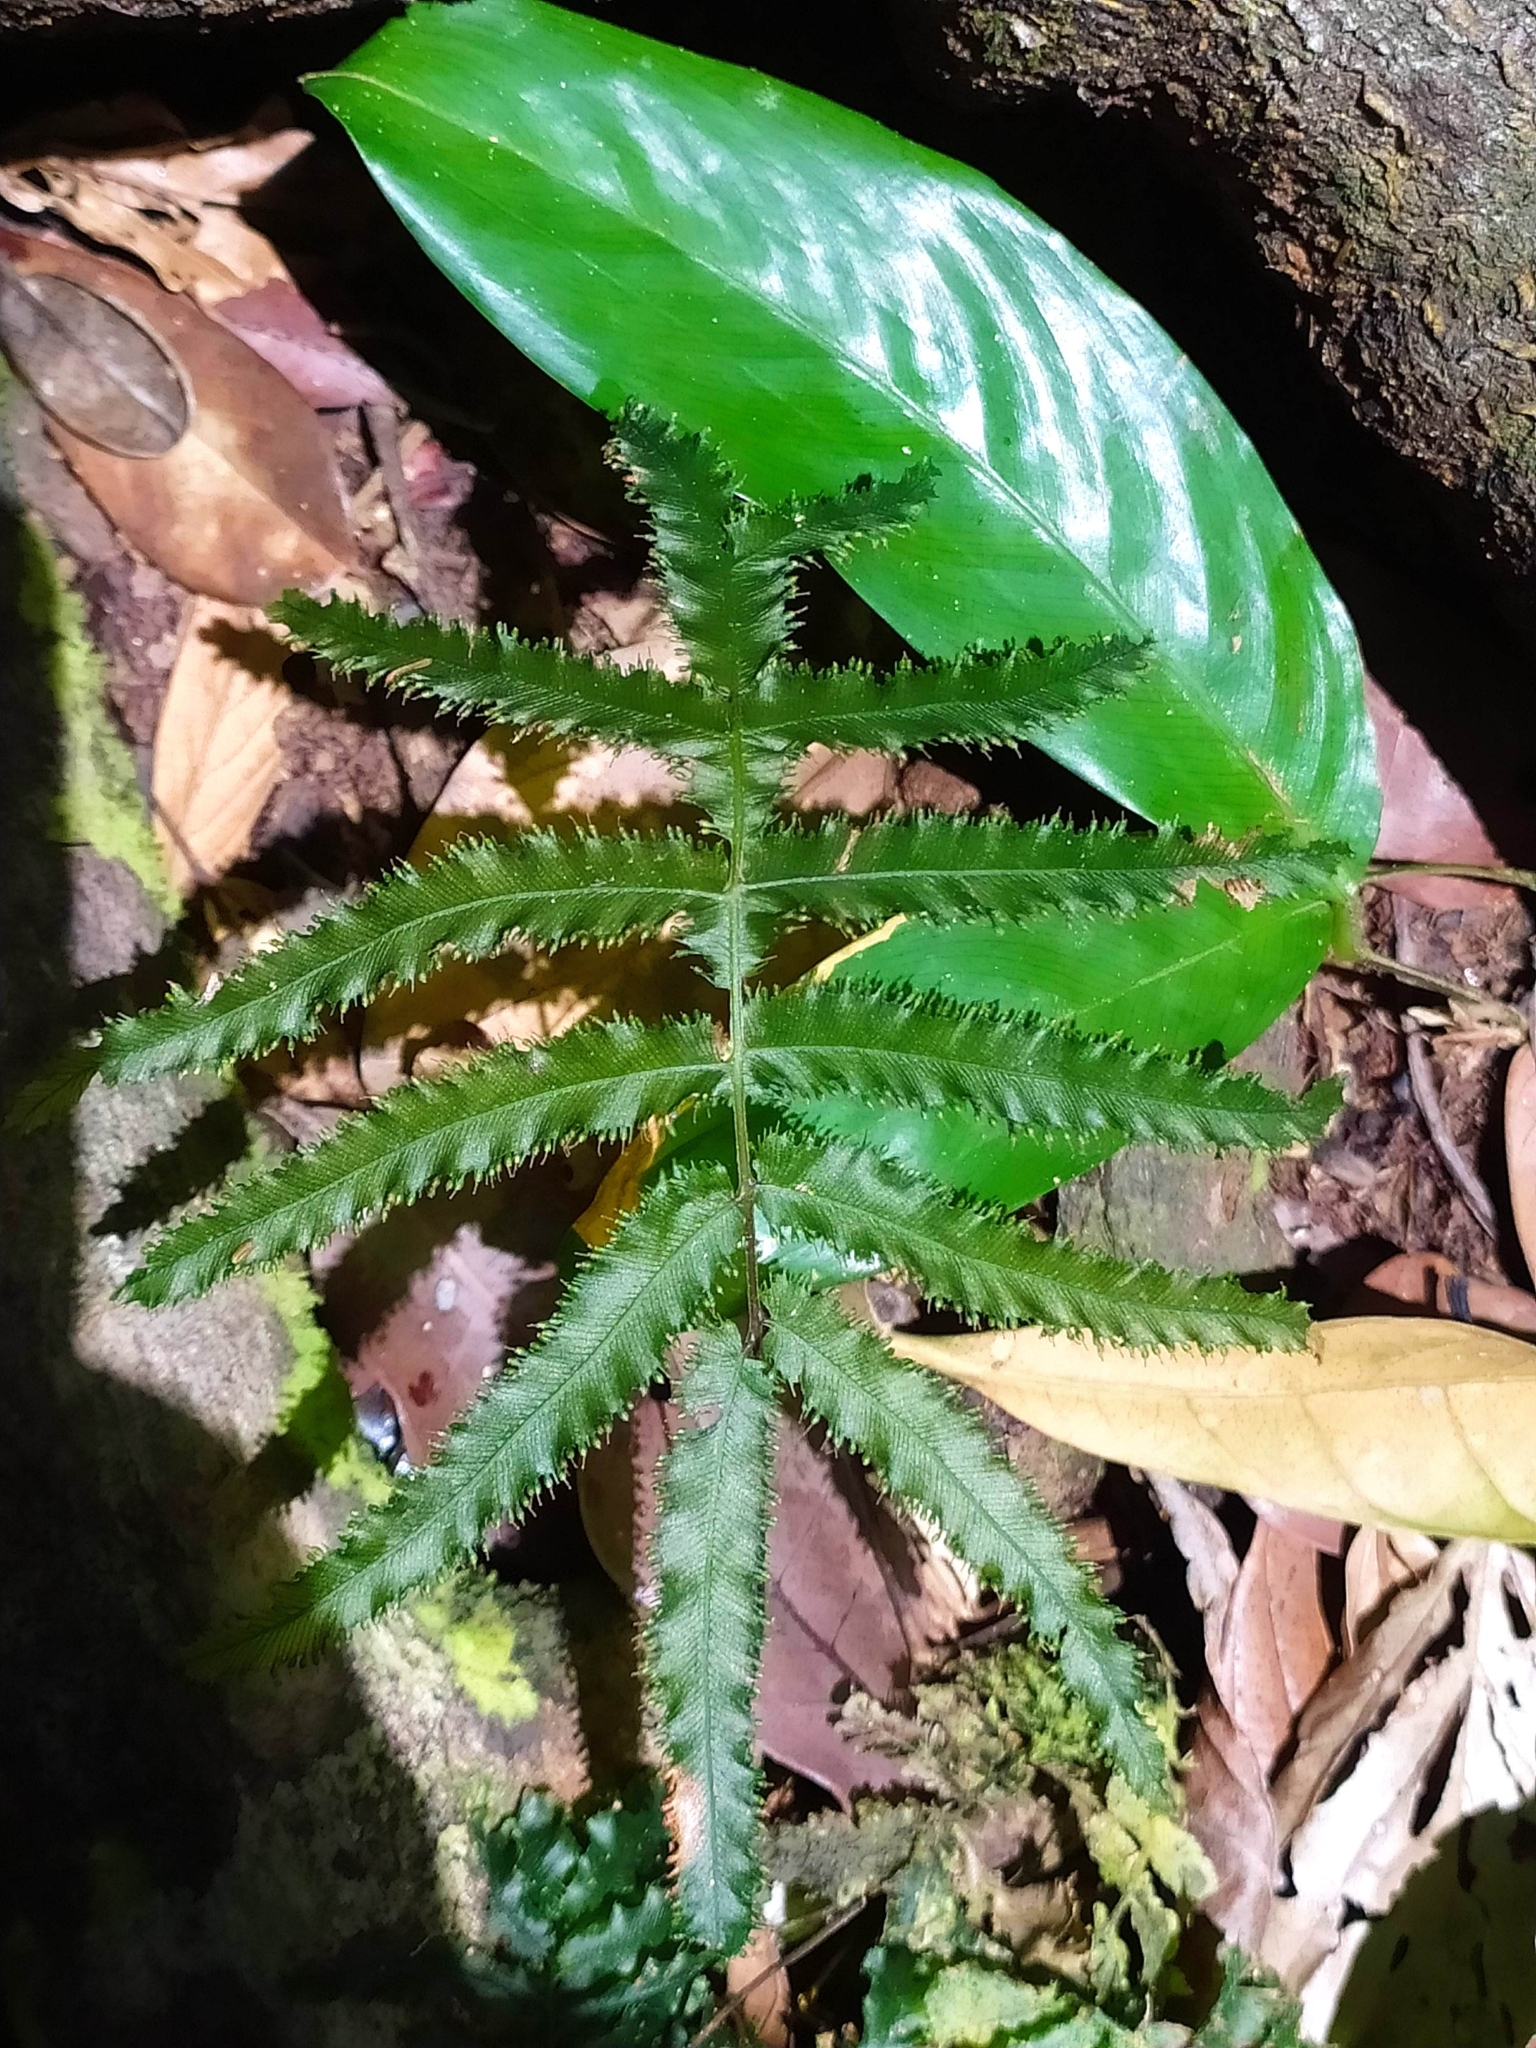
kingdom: Plantae
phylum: Tracheophyta
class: Polypodiopsida
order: Hymenophyllales
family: Hymenophyllaceae
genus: Trichomanes
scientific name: Trichomanes pinnatum
